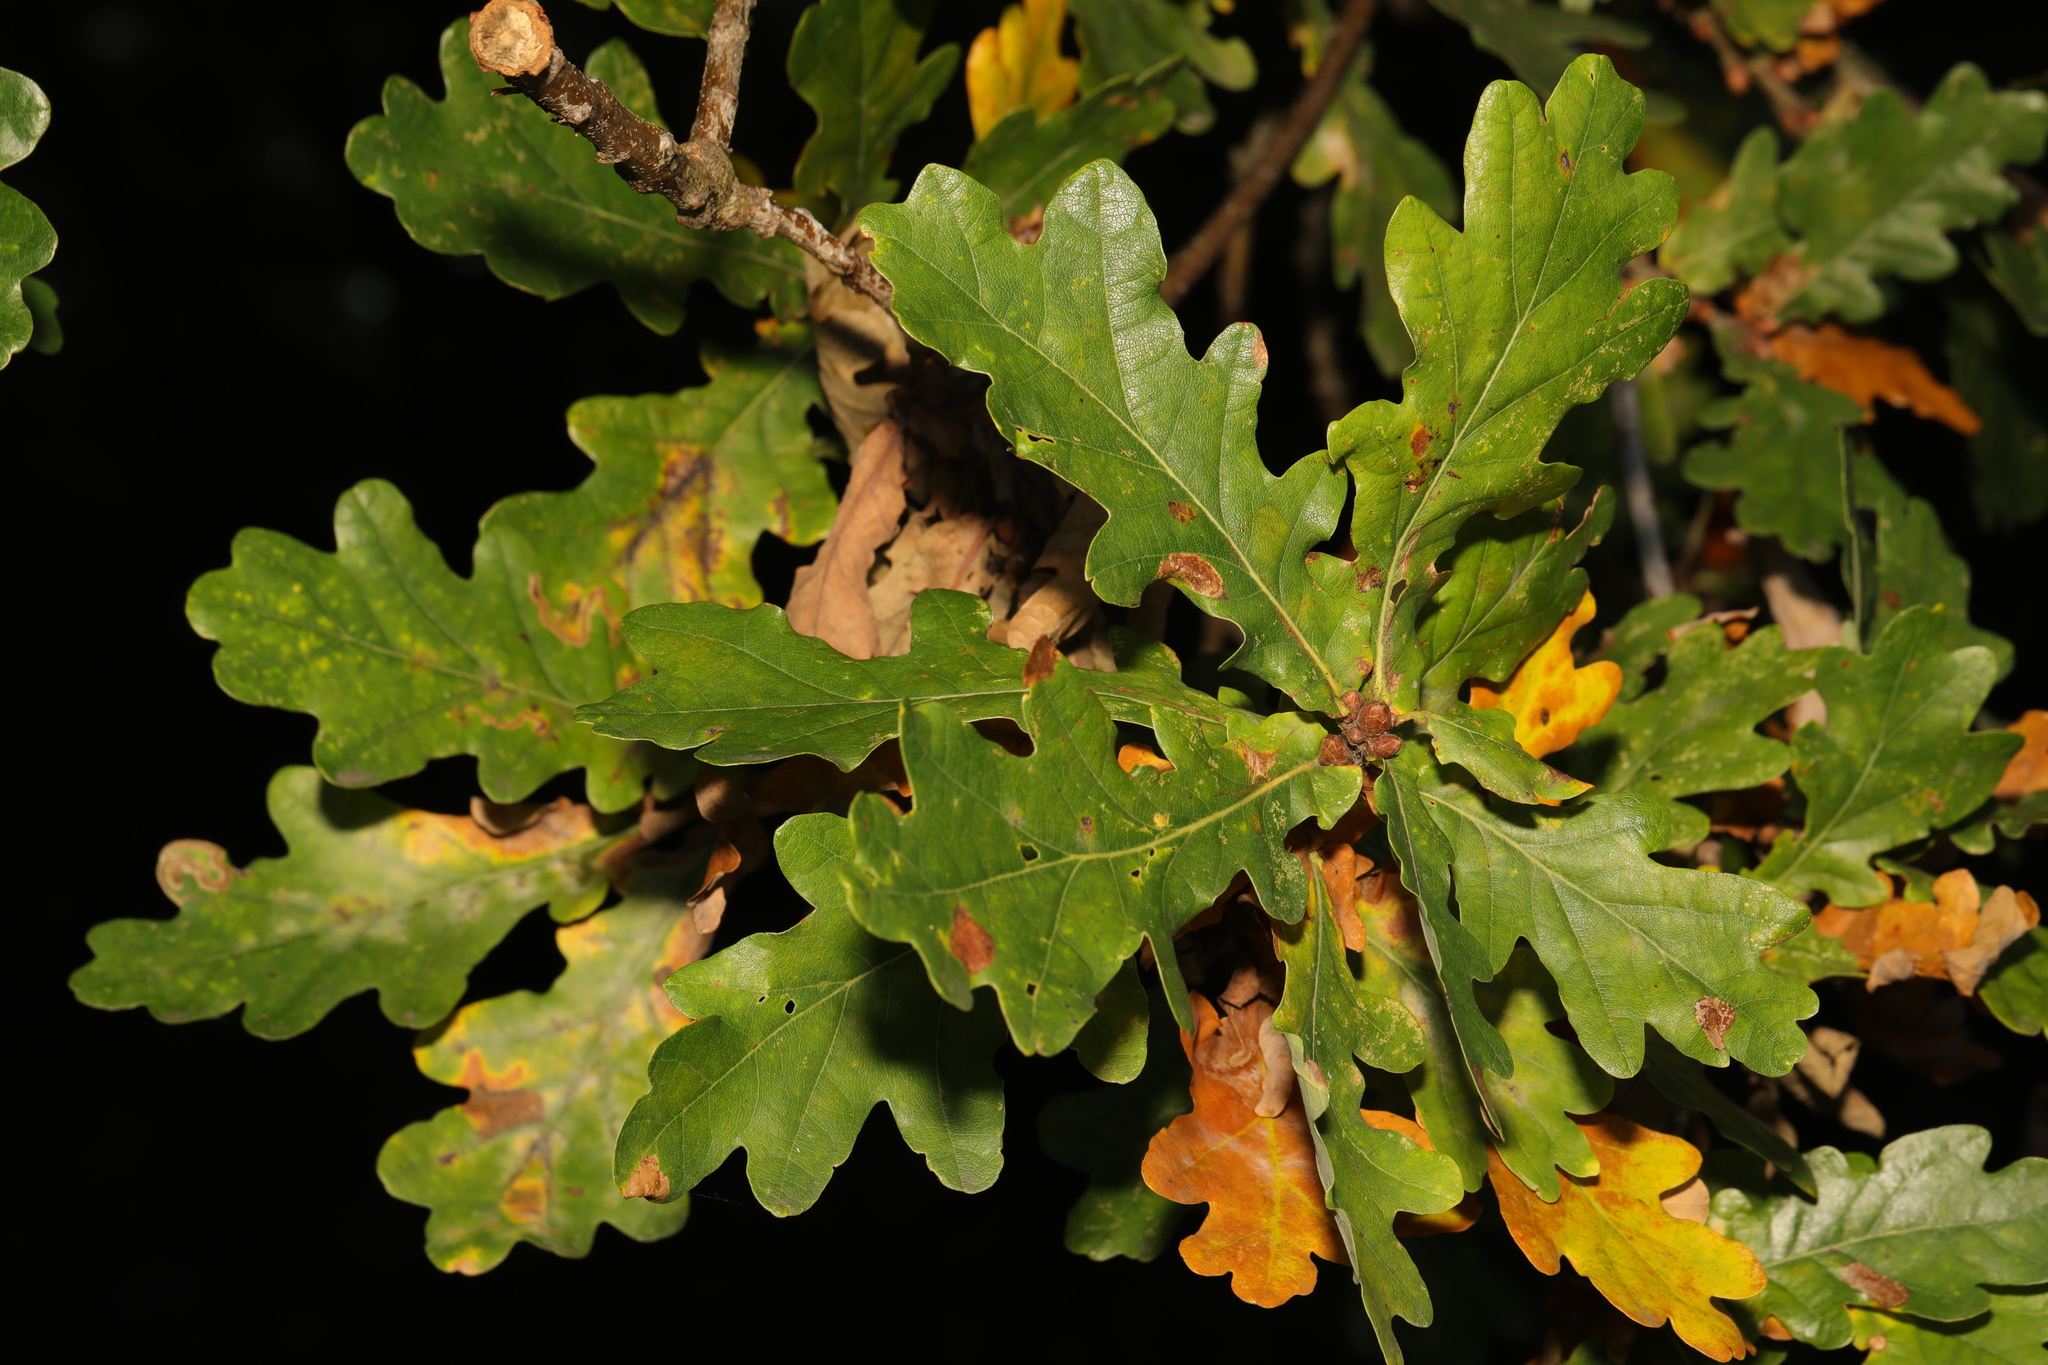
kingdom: Plantae
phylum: Tracheophyta
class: Magnoliopsida
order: Fagales
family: Fagaceae
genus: Quercus
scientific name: Quercus robur
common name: Pedunculate oak
